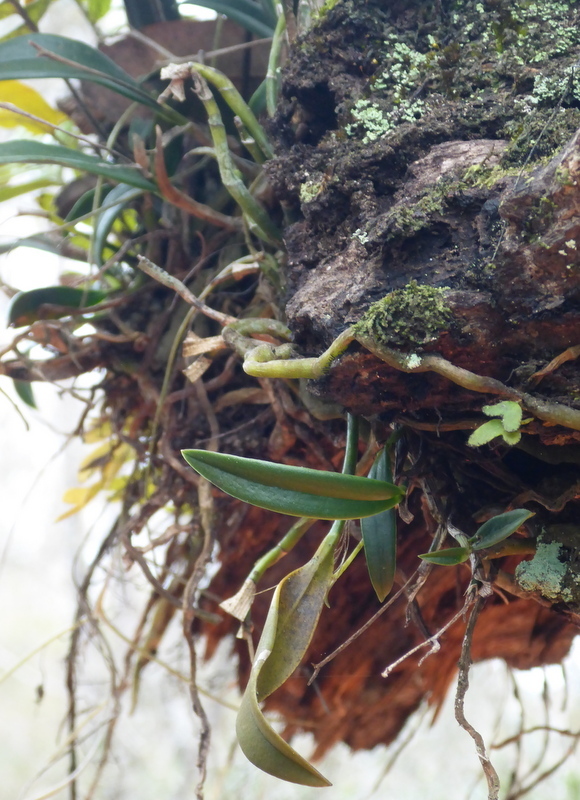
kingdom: Plantae
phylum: Tracheophyta
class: Liliopsida
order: Asparagales
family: Orchidaceae
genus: Epidendrum
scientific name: Epidendrum conopseum
